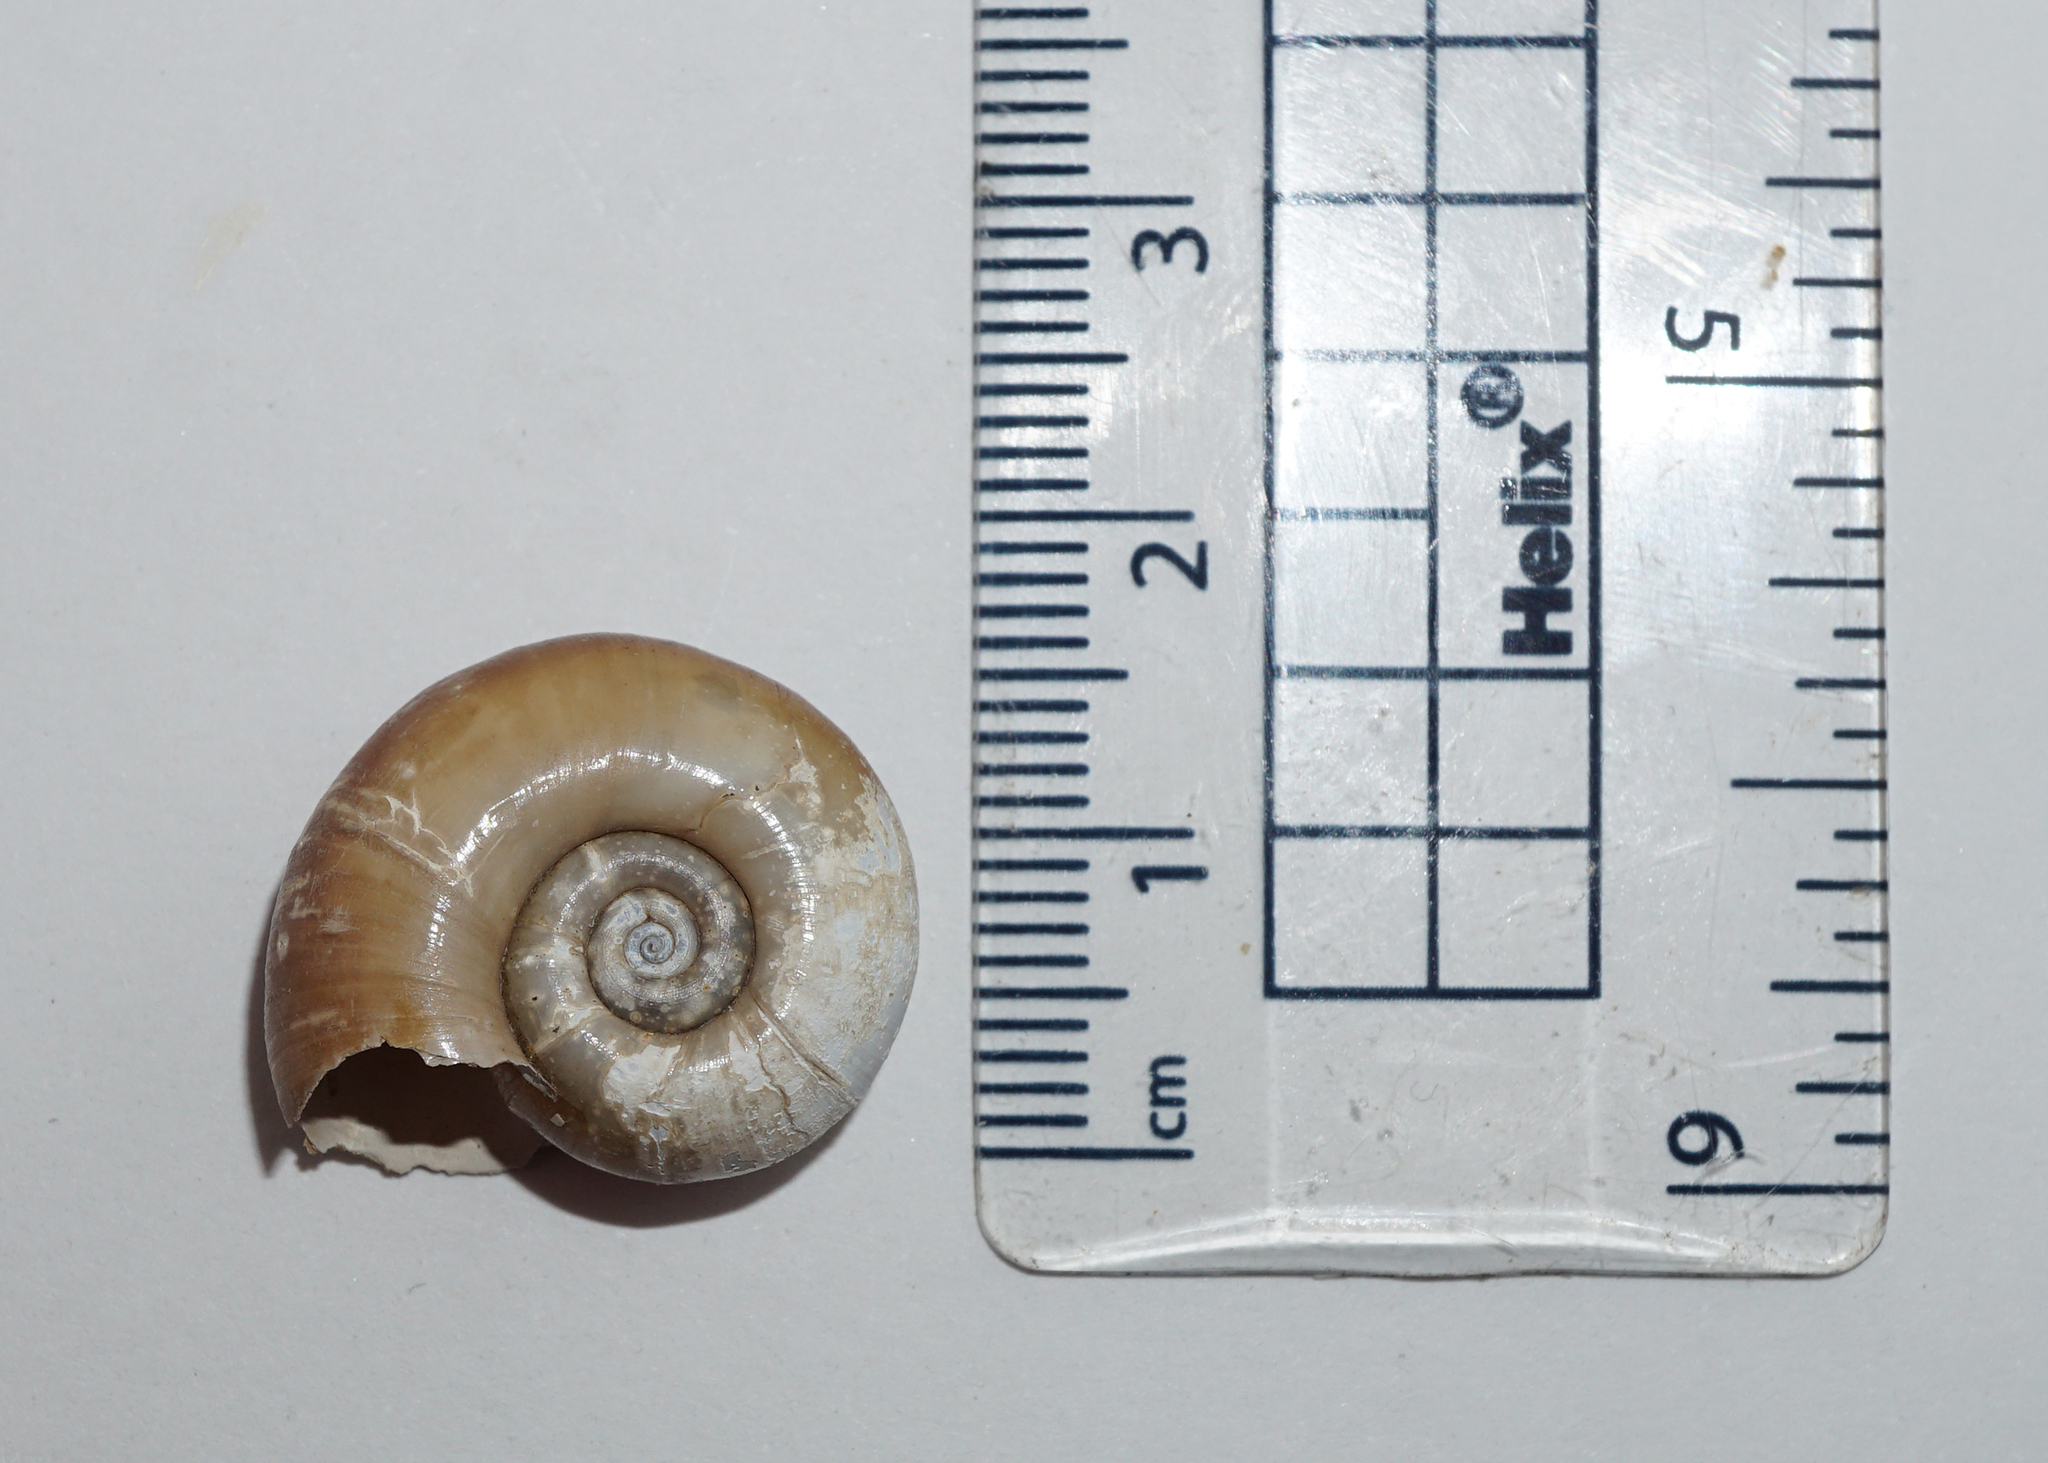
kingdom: Animalia
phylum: Mollusca
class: Gastropoda
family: Planorbidae
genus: Planorbarius
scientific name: Planorbarius corneus
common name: Great ramshorn
